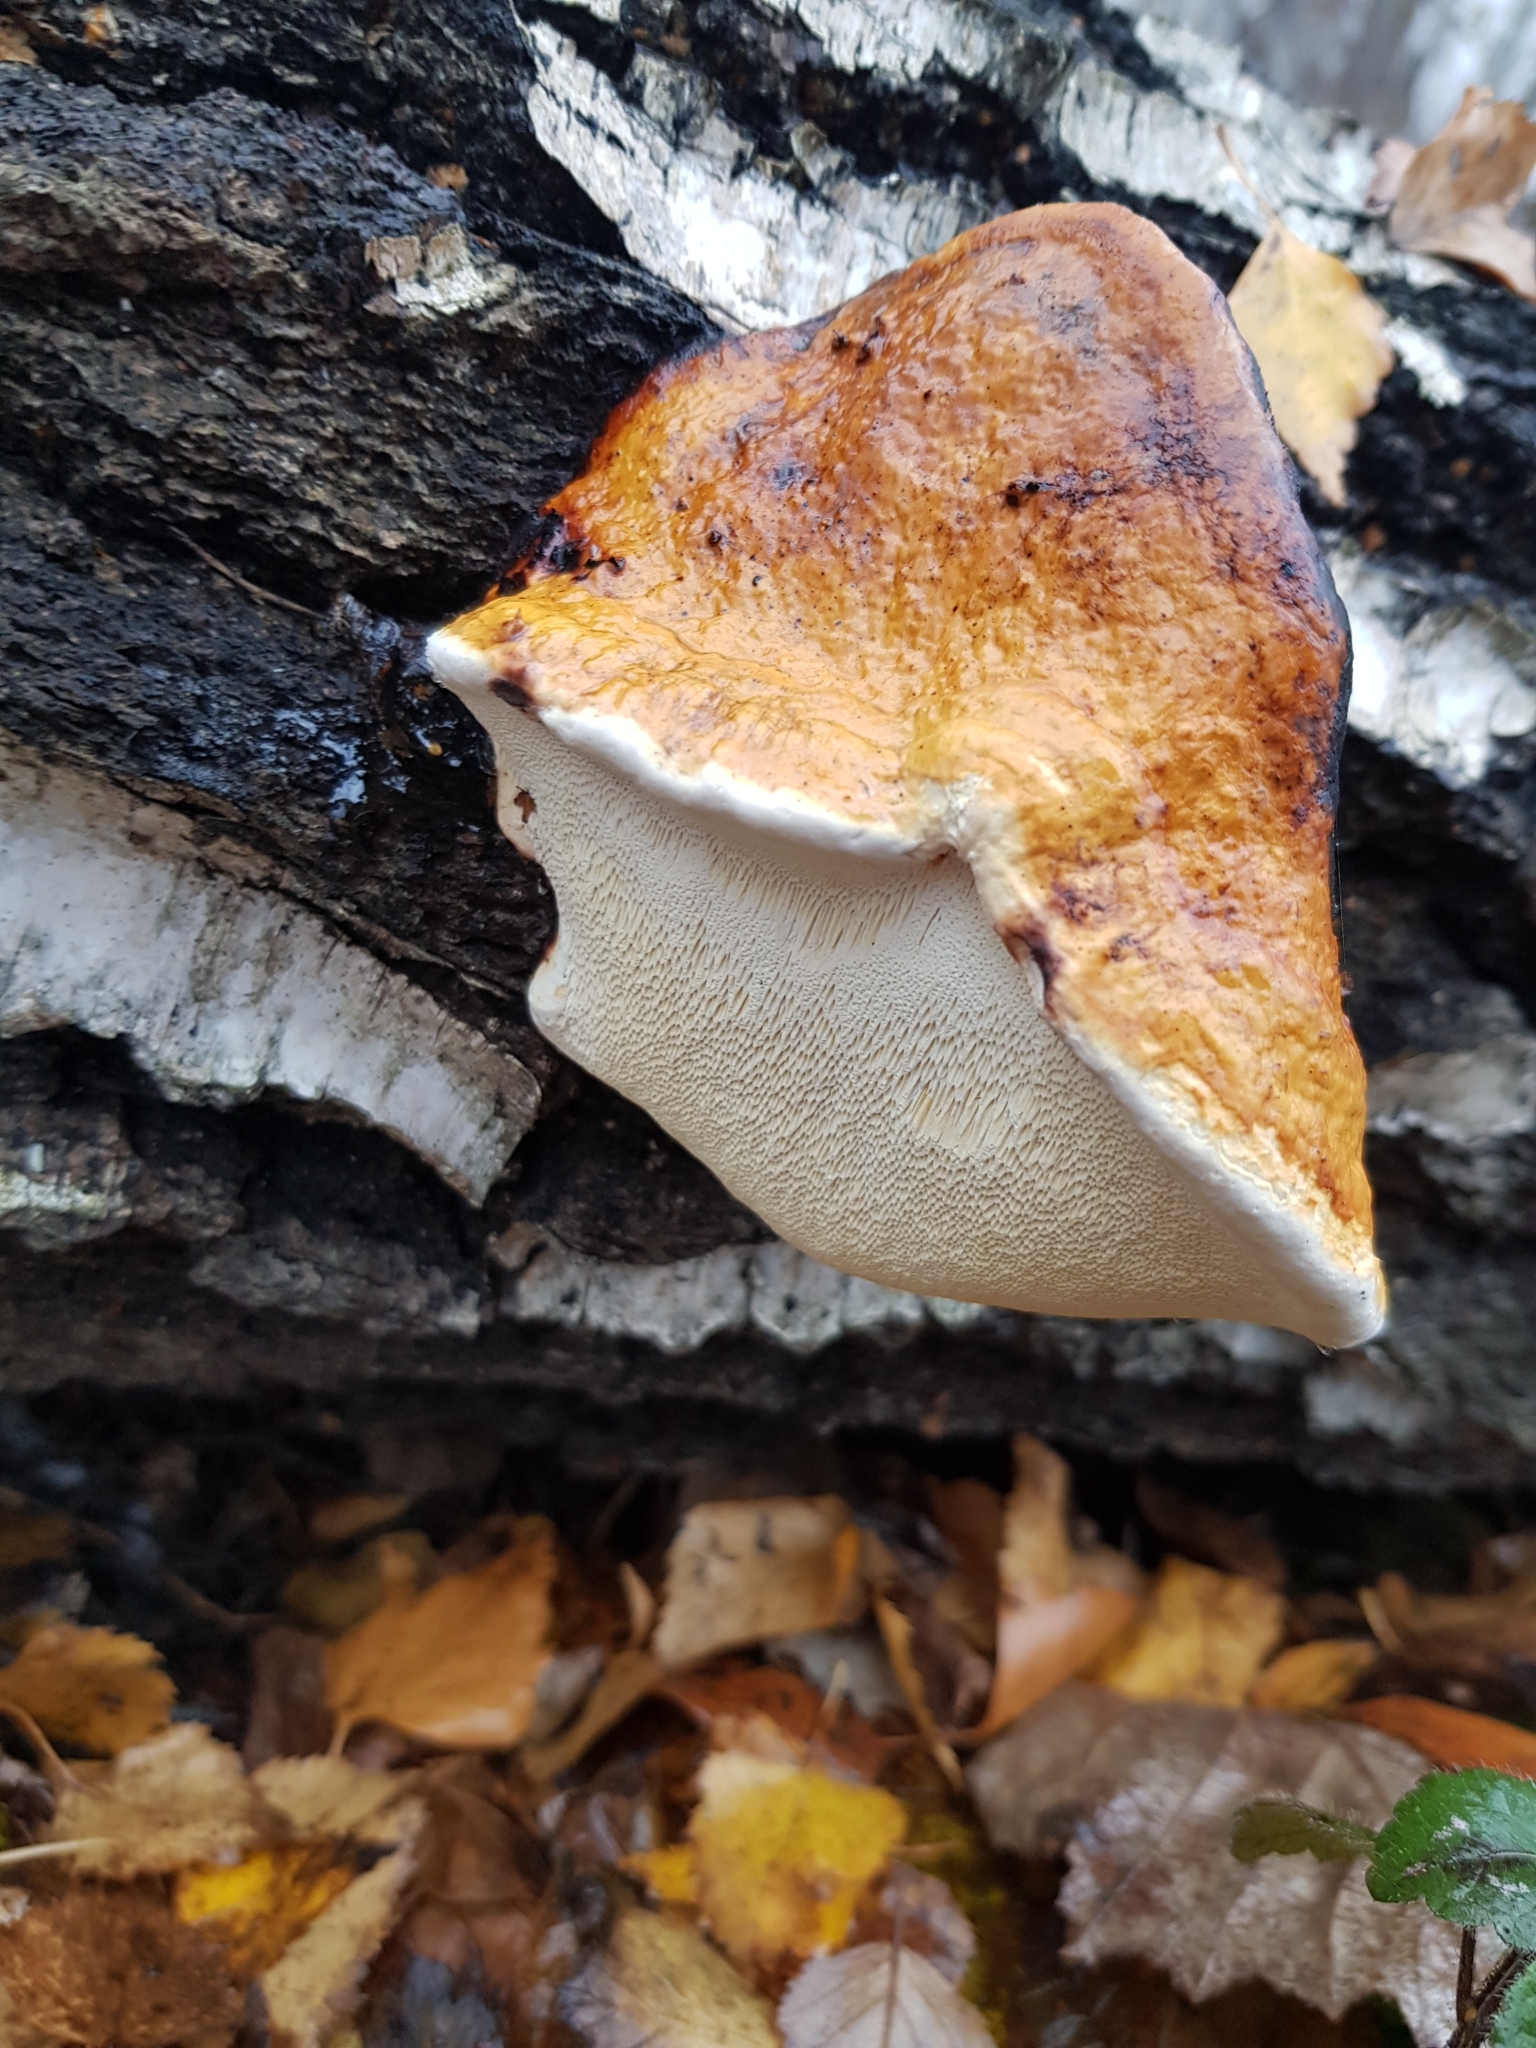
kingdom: Fungi
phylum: Basidiomycota
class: Agaricomycetes
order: Polyporales
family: Fomitopsidaceae
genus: Fomitopsis
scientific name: Fomitopsis pinicola
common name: Red-belted bracket
